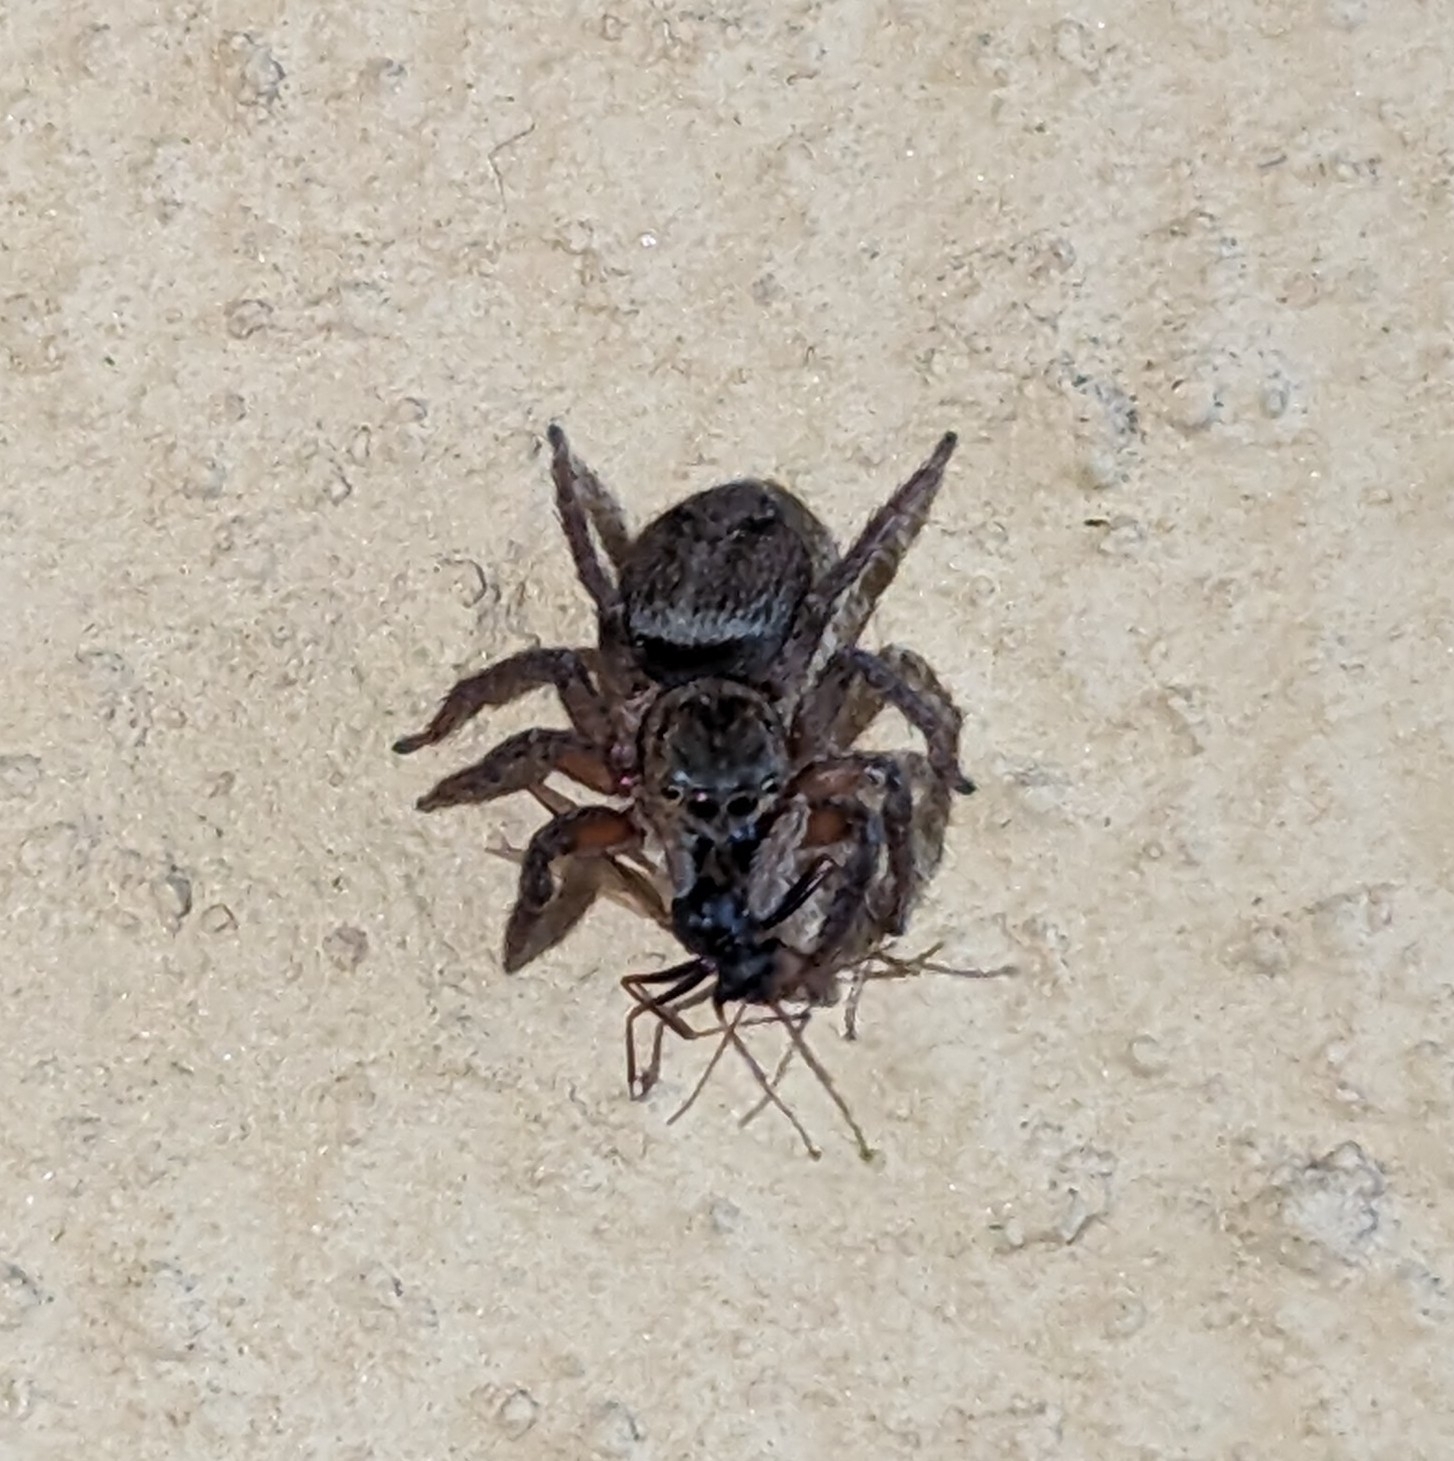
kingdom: Animalia
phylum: Arthropoda
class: Arachnida
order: Araneae
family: Salticidae
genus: Hasarius
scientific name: Hasarius adansoni
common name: Jumping spider
